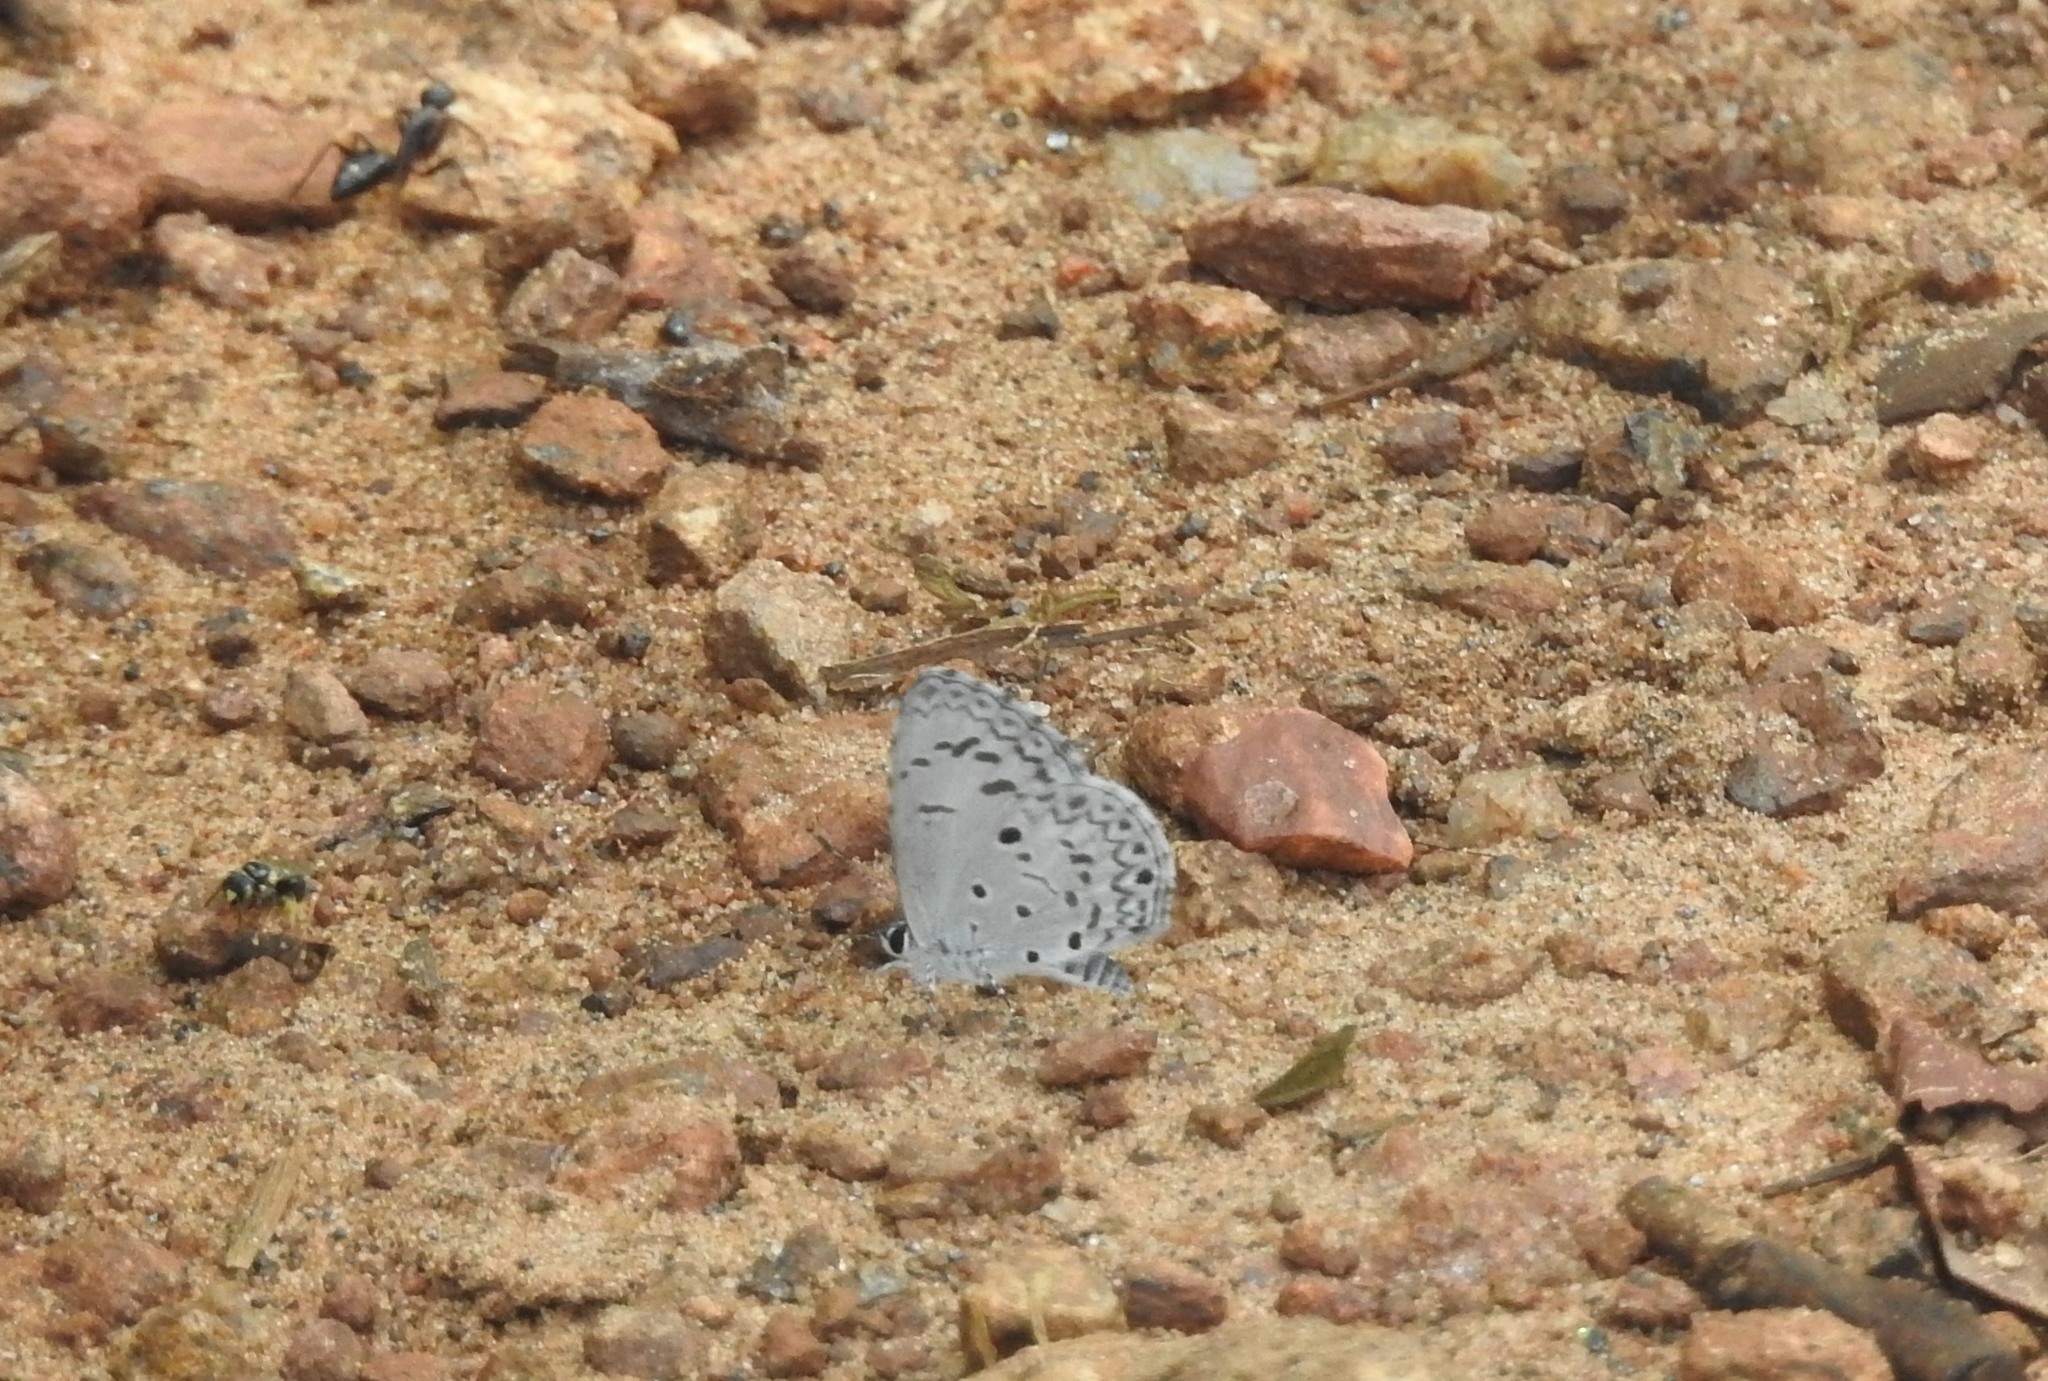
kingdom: Animalia
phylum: Arthropoda
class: Insecta
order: Lepidoptera
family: Lycaenidae
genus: Acytolepis
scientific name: Acytolepis puspa
